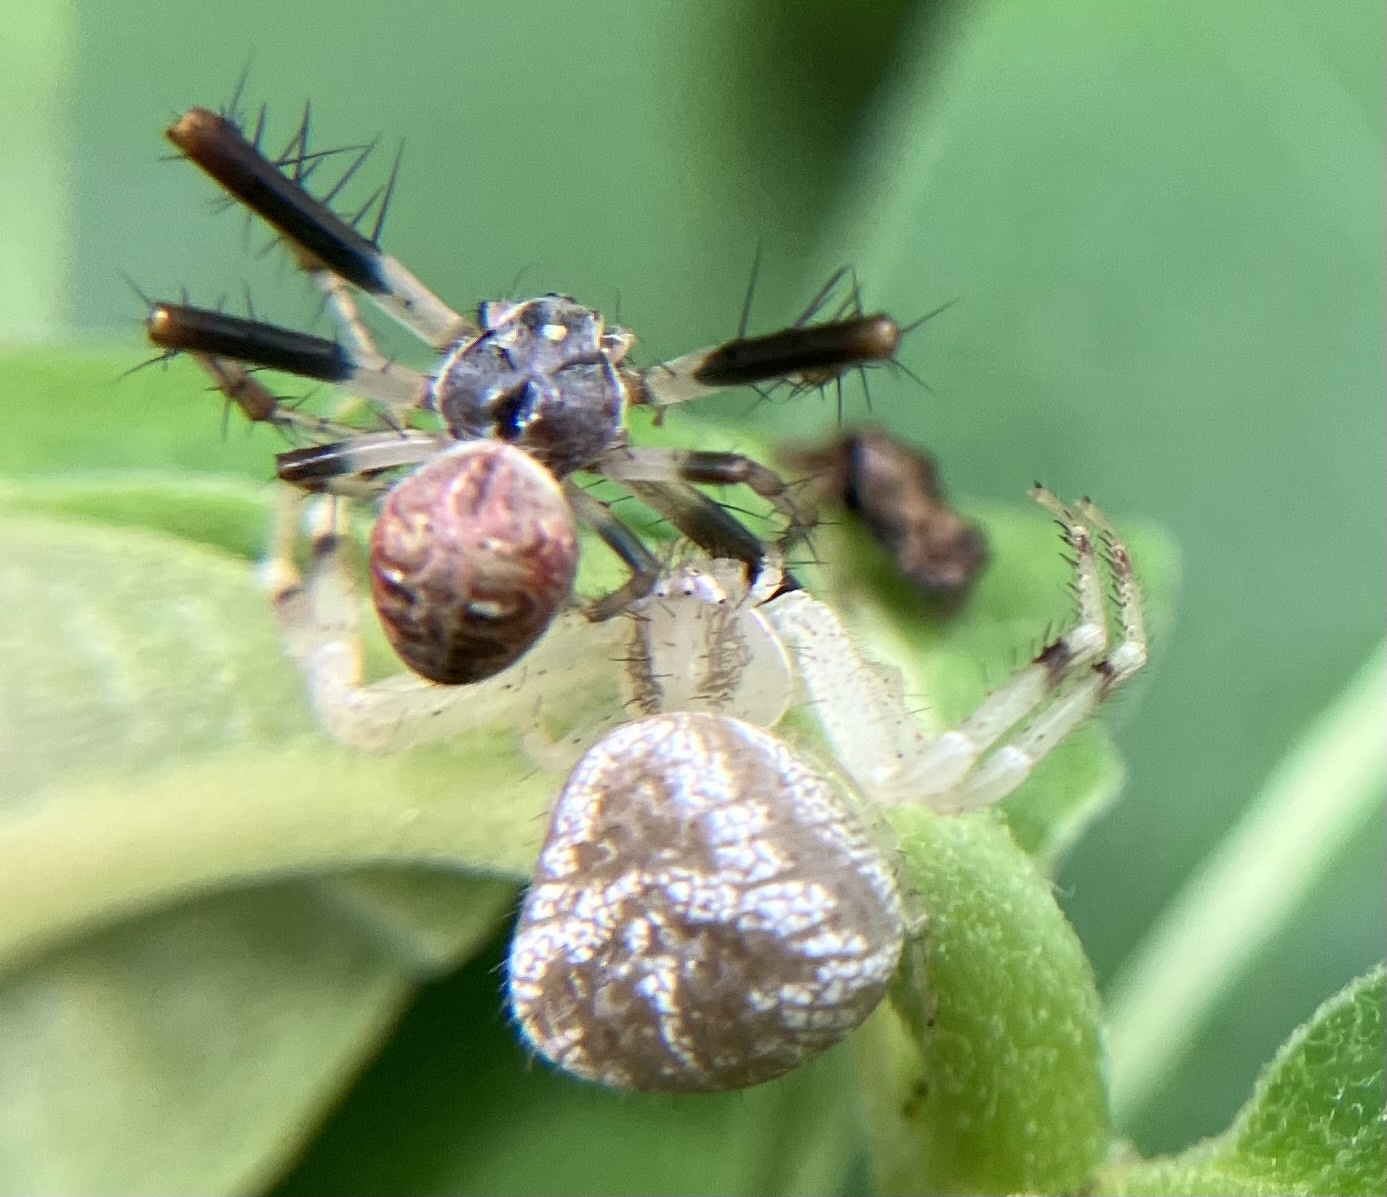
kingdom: Animalia
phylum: Arthropoda
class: Arachnida
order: Araneae
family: Araneidae
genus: Metepeira
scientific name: Metepeira labyrinthea
